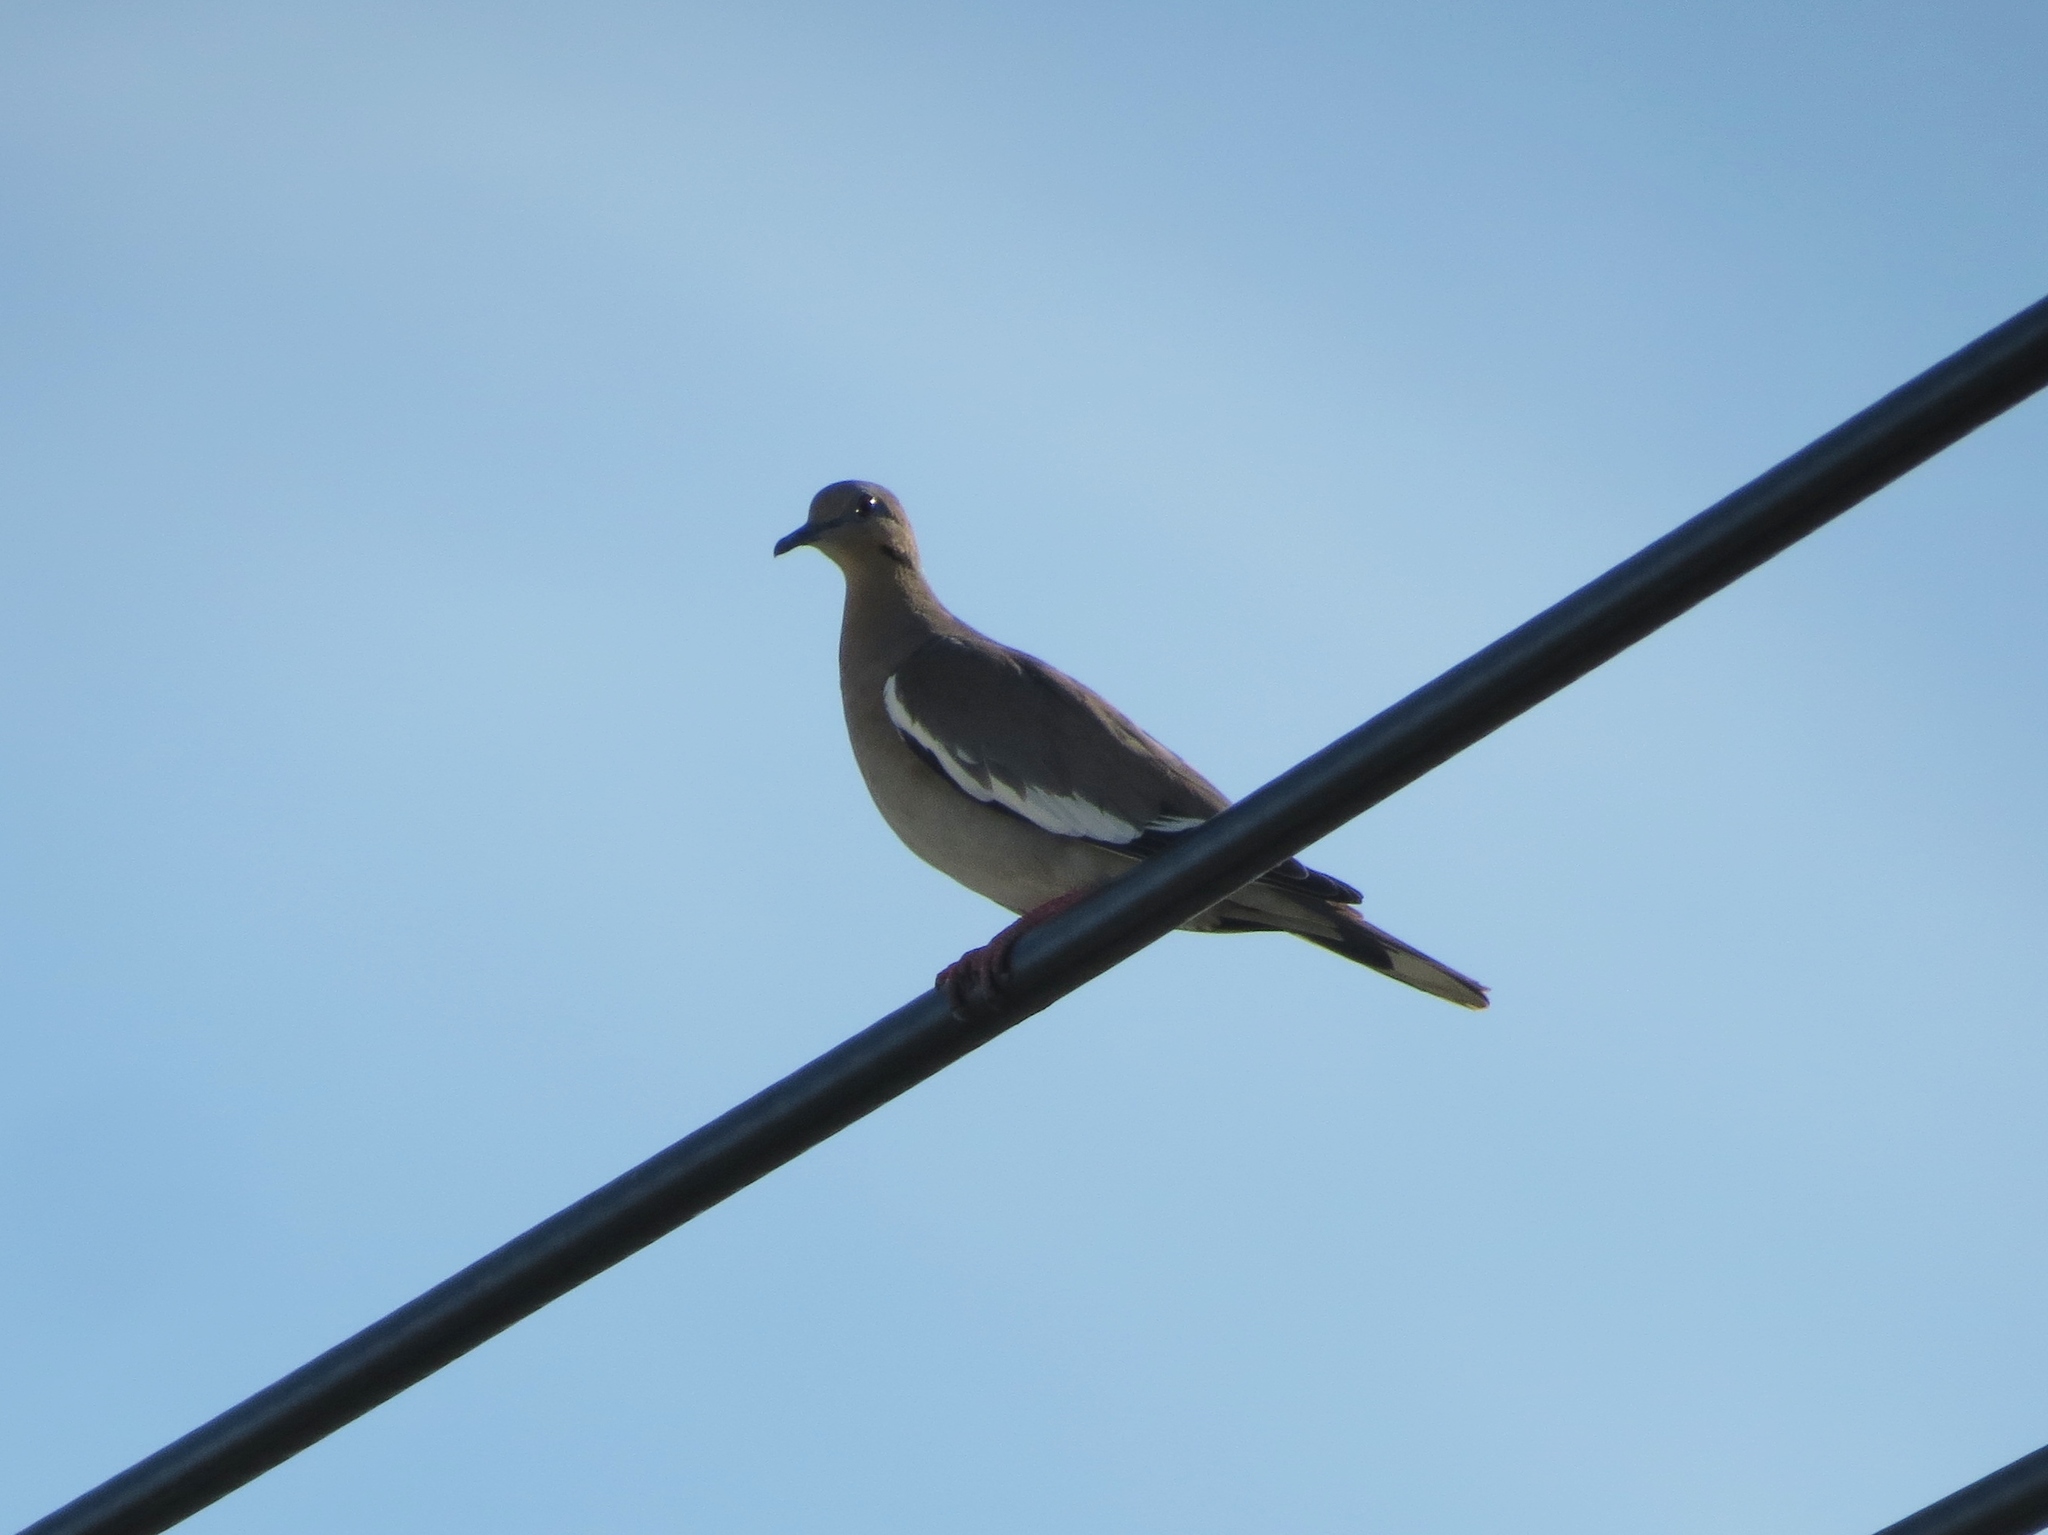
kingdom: Animalia
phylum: Chordata
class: Aves
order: Columbiformes
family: Columbidae
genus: Zenaida
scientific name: Zenaida asiatica
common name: White-winged dove
